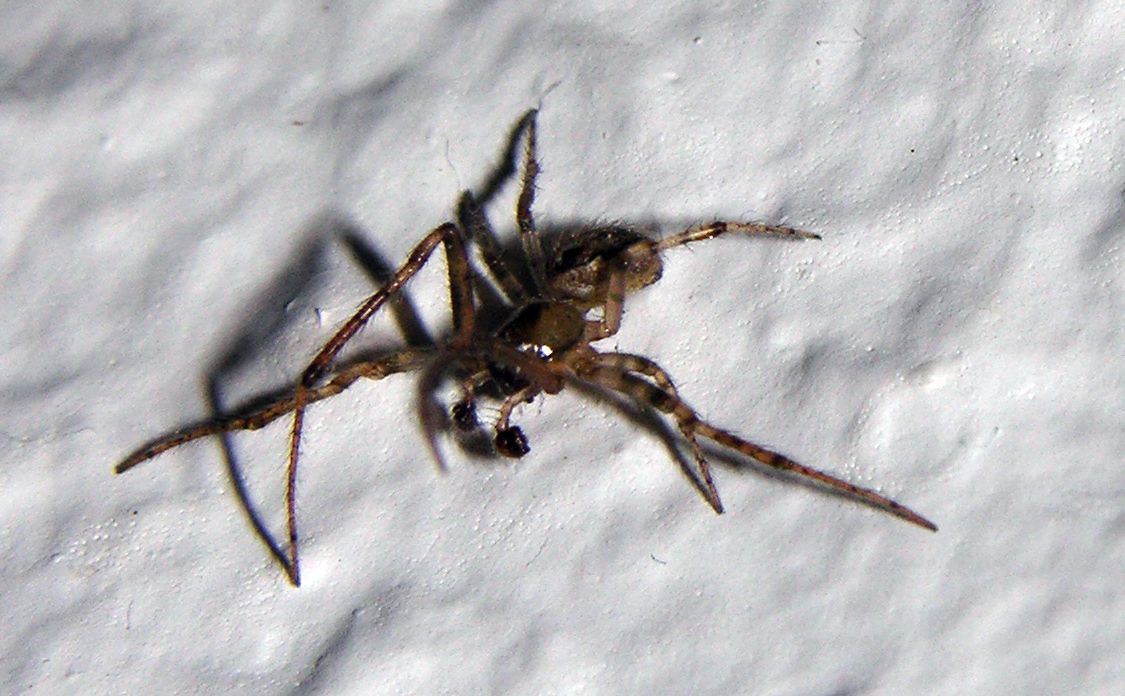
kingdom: Animalia
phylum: Arthropoda
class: Arachnida
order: Araneae
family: Araneidae
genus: Zygiella
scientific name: Zygiella x-notata
